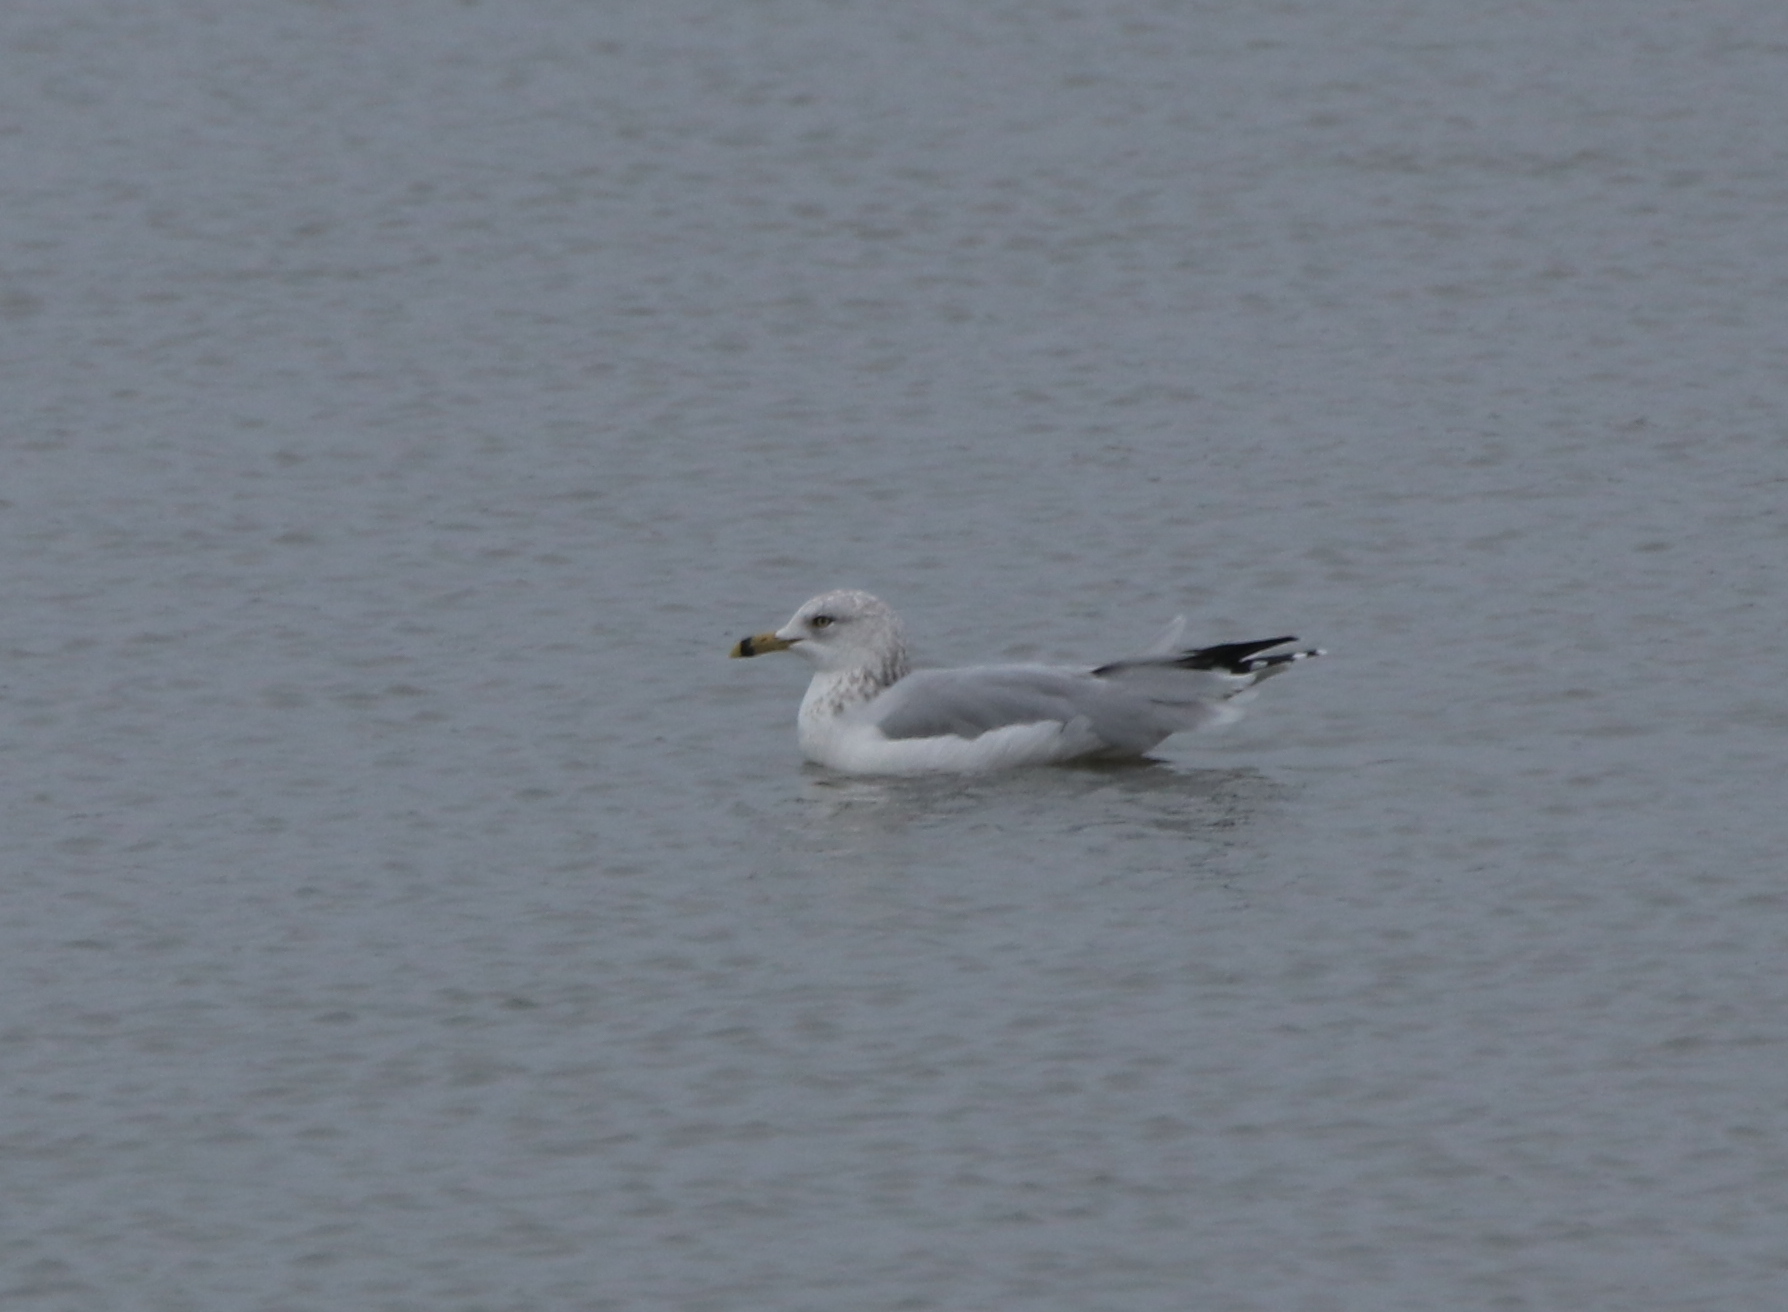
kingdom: Animalia
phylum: Chordata
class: Aves
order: Charadriiformes
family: Laridae
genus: Larus
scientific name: Larus delawarensis
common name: Ring-billed gull
